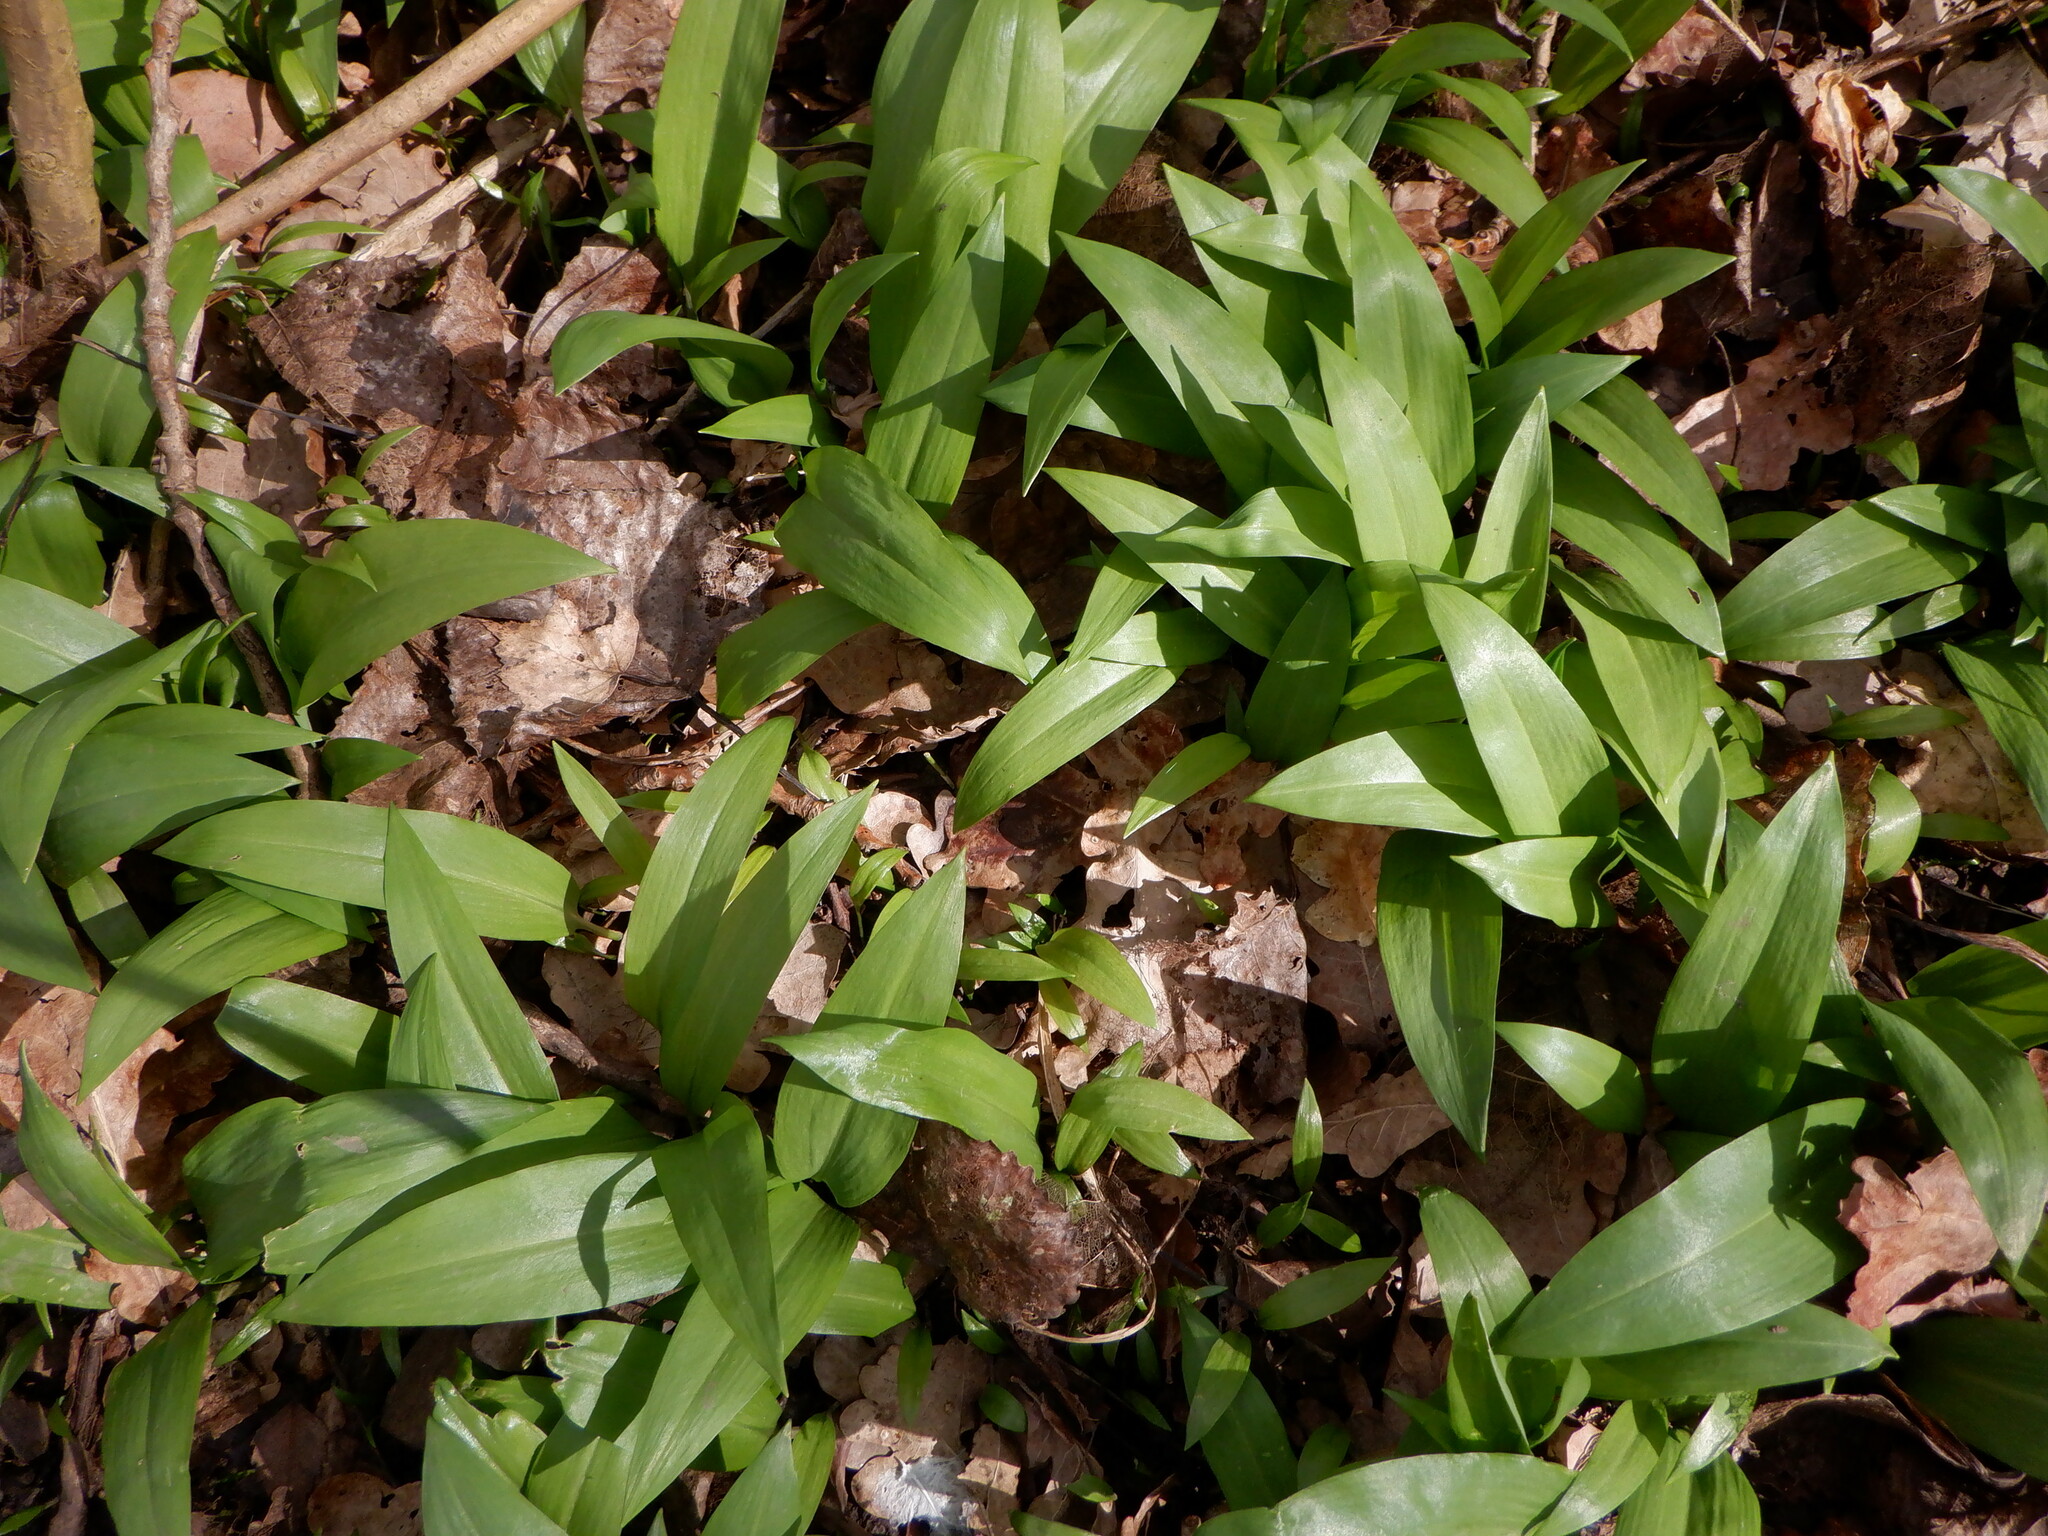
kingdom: Plantae
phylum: Tracheophyta
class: Liliopsida
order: Asparagales
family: Amaryllidaceae
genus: Allium
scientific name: Allium ursinum
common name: Ramsons
